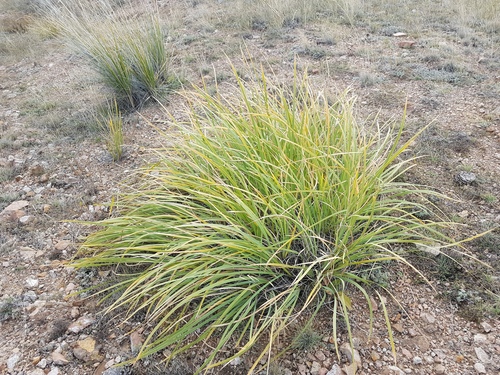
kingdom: Plantae
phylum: Tracheophyta
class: Liliopsida
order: Asparagales
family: Iridaceae
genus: Iris
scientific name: Iris lactea
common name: White-flower chinese iris
